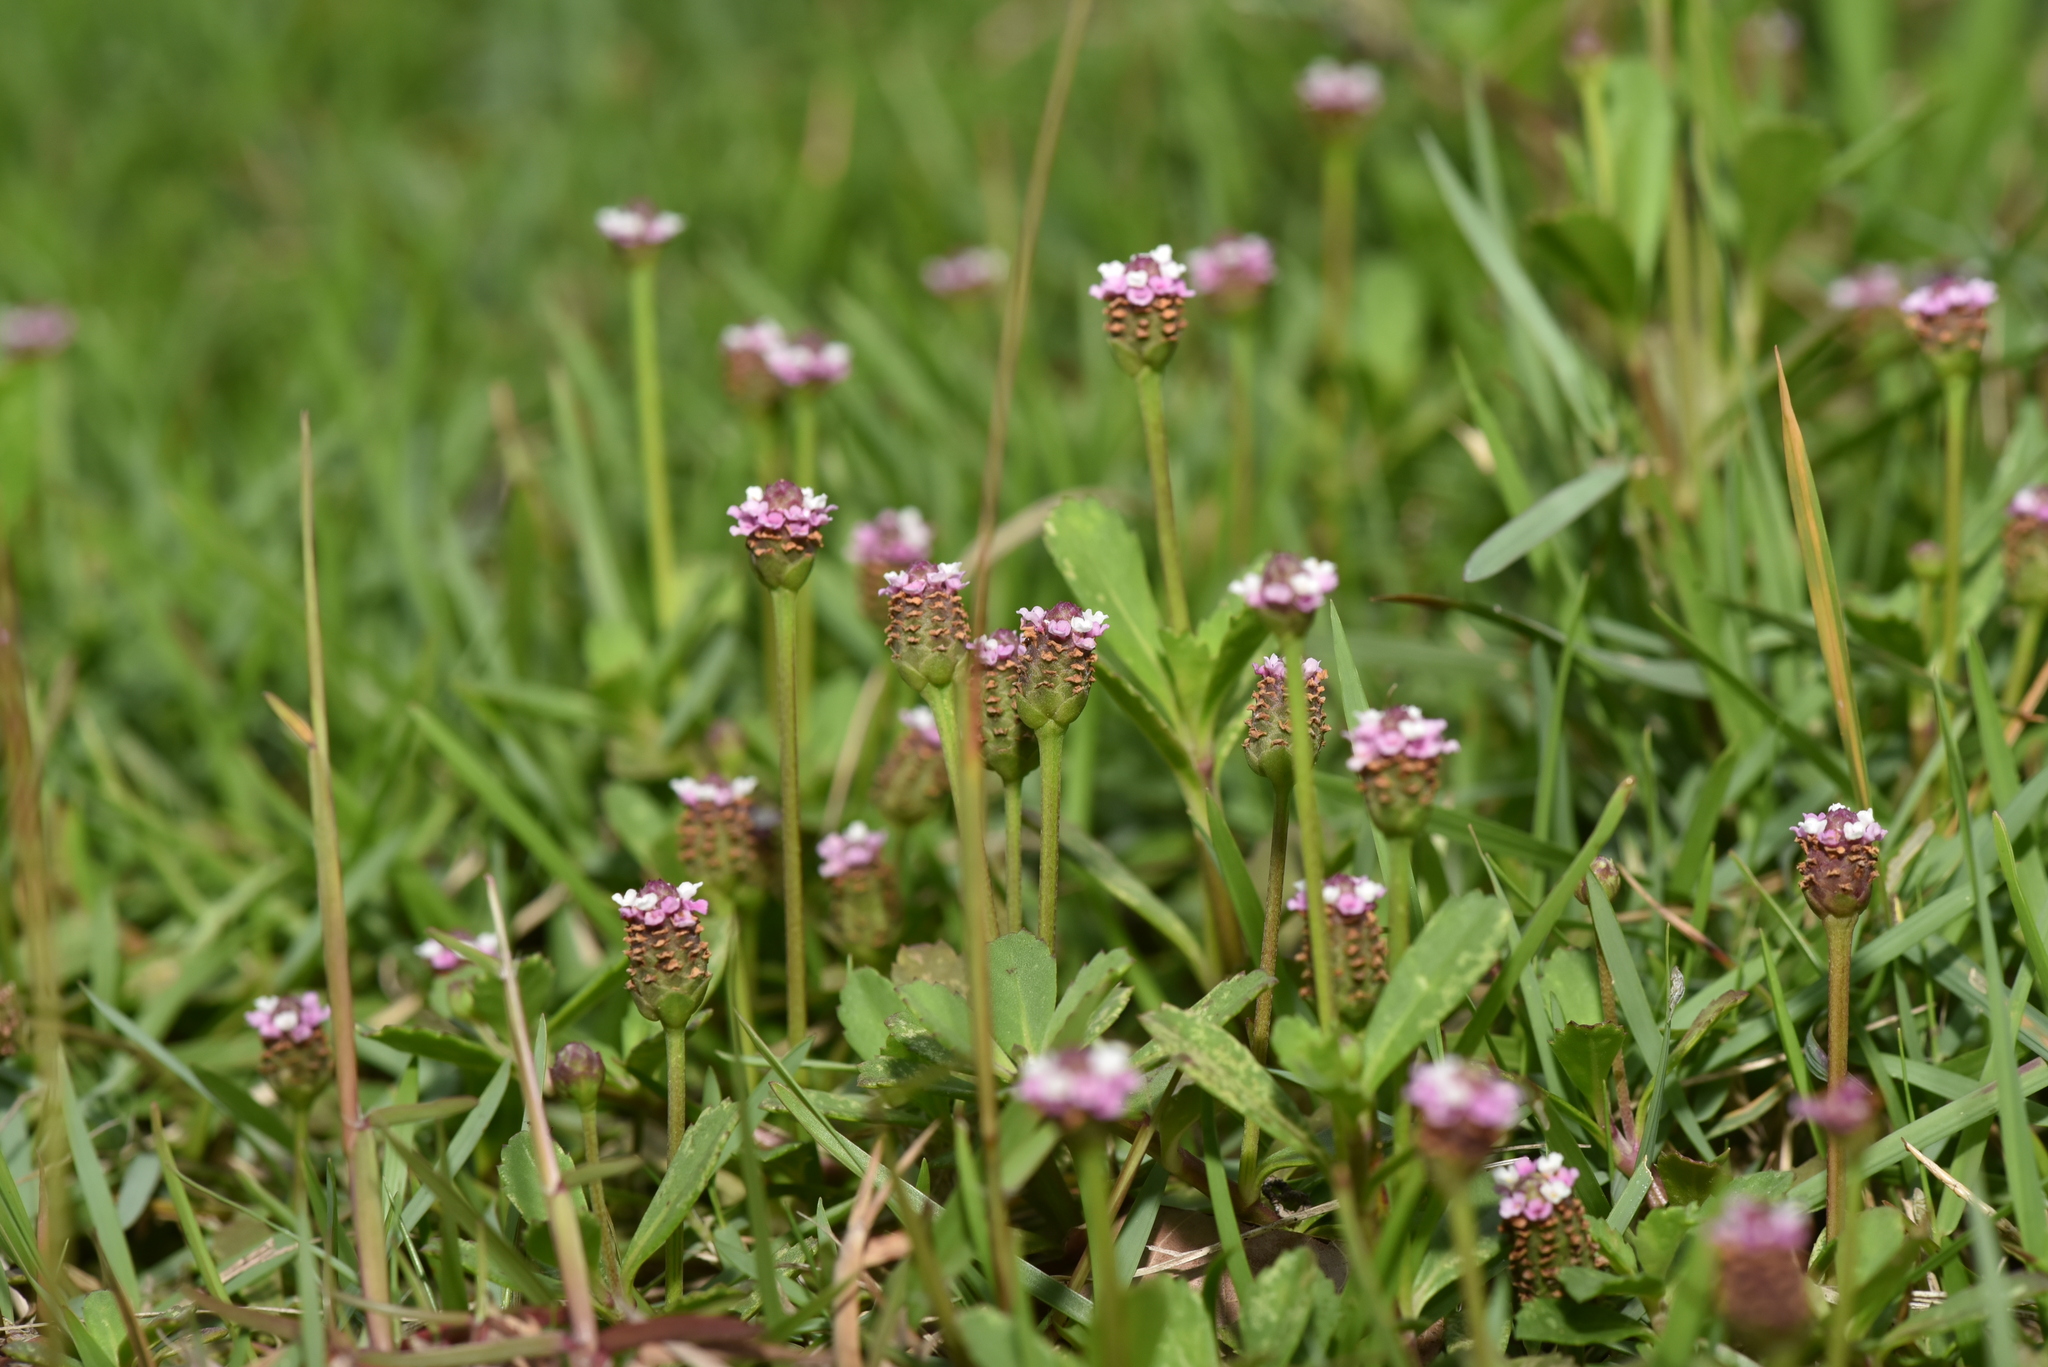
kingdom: Plantae
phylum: Tracheophyta
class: Magnoliopsida
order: Lamiales
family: Verbenaceae
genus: Phyla
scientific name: Phyla nodiflora
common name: Frogfruit
